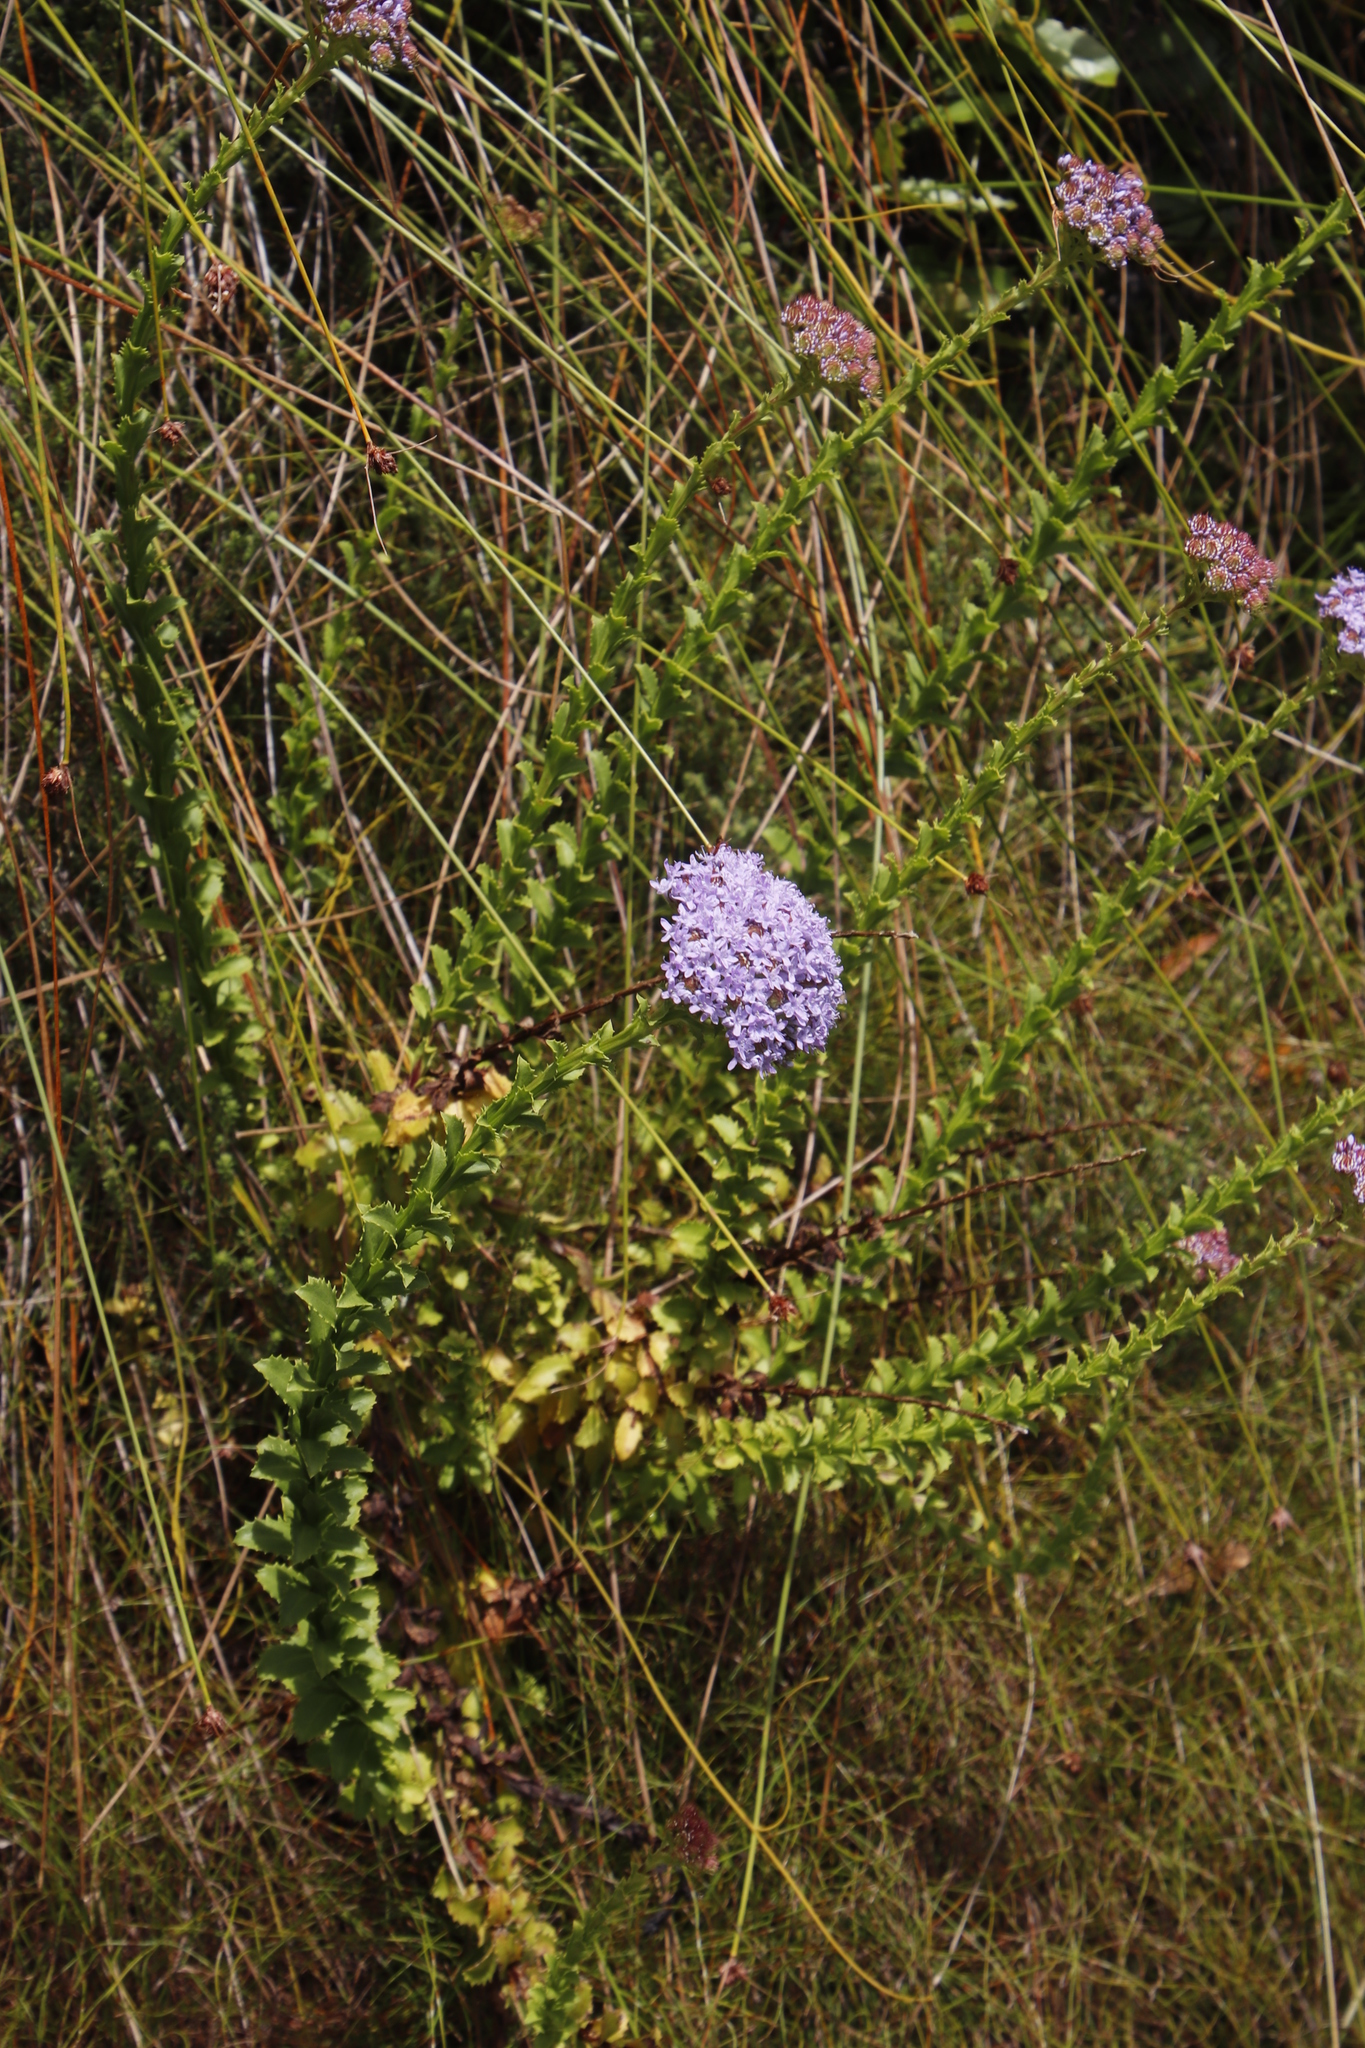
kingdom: Plantae
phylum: Tracheophyta
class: Magnoliopsida
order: Lamiales
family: Scrophulariaceae
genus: Pseudoselago
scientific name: Pseudoselago serrata
